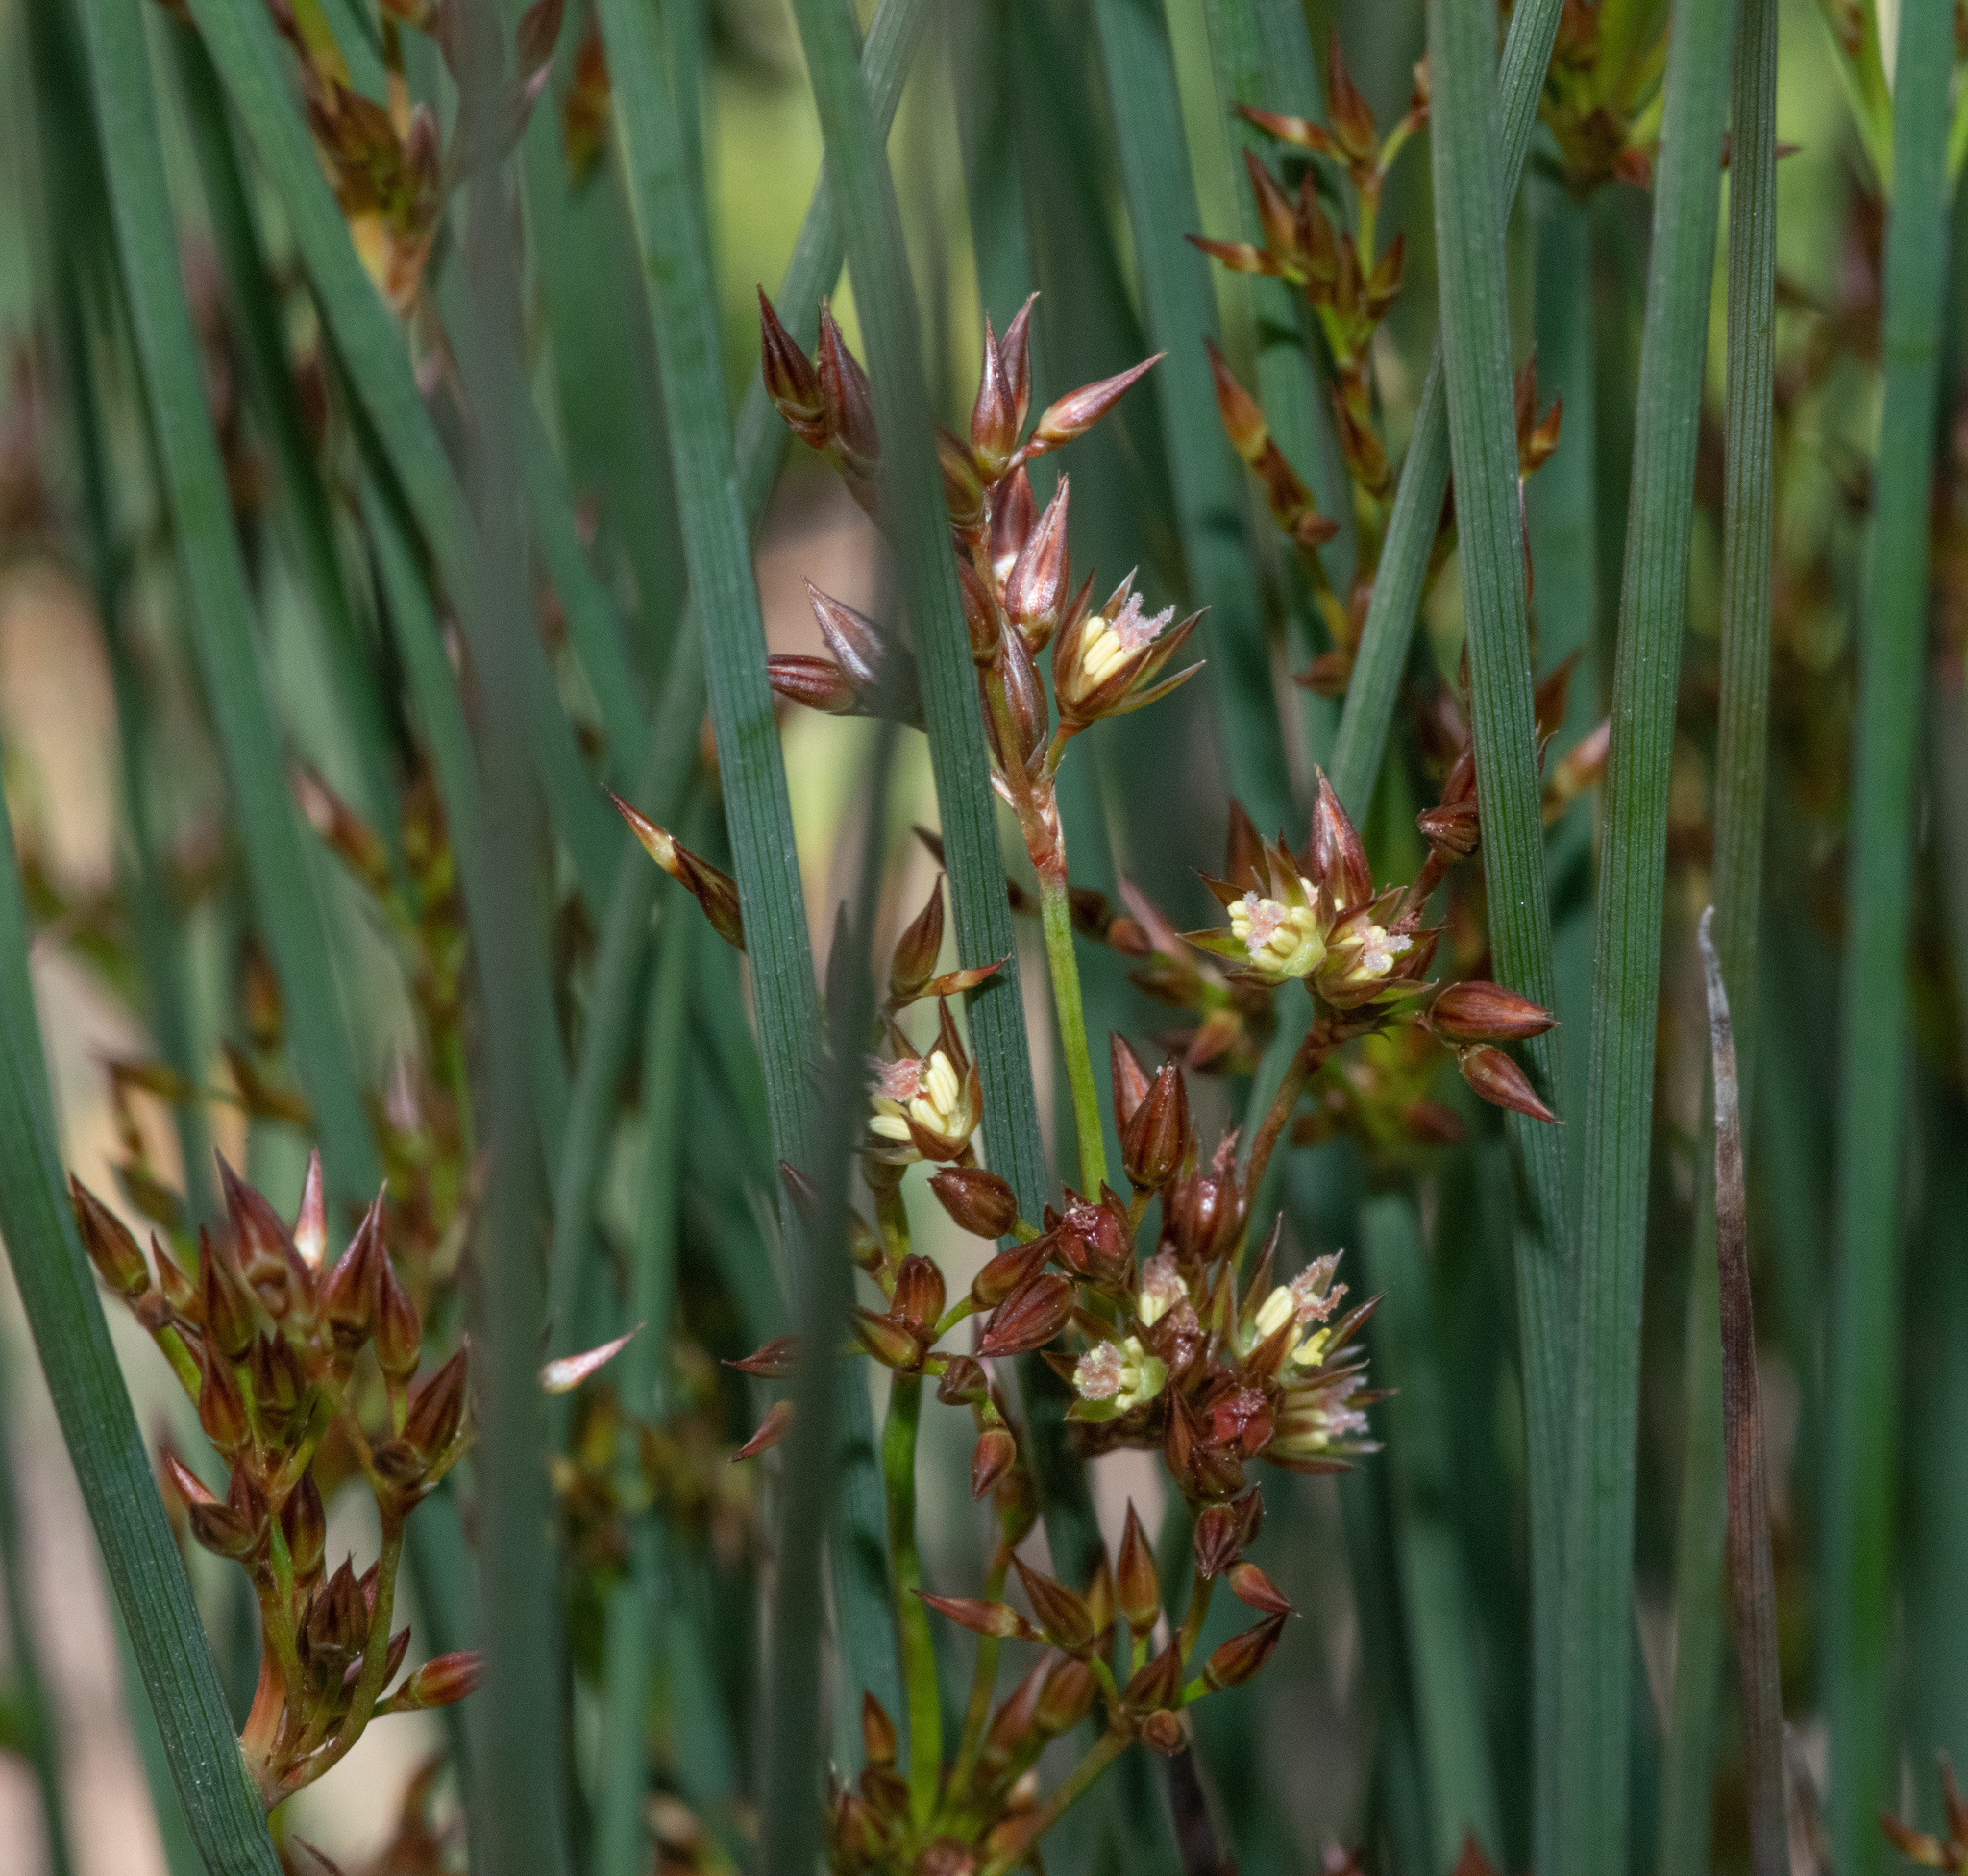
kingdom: Plantae
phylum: Tracheophyta
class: Liliopsida
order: Poales
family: Juncaceae
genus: Juncus
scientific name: Juncus patens
